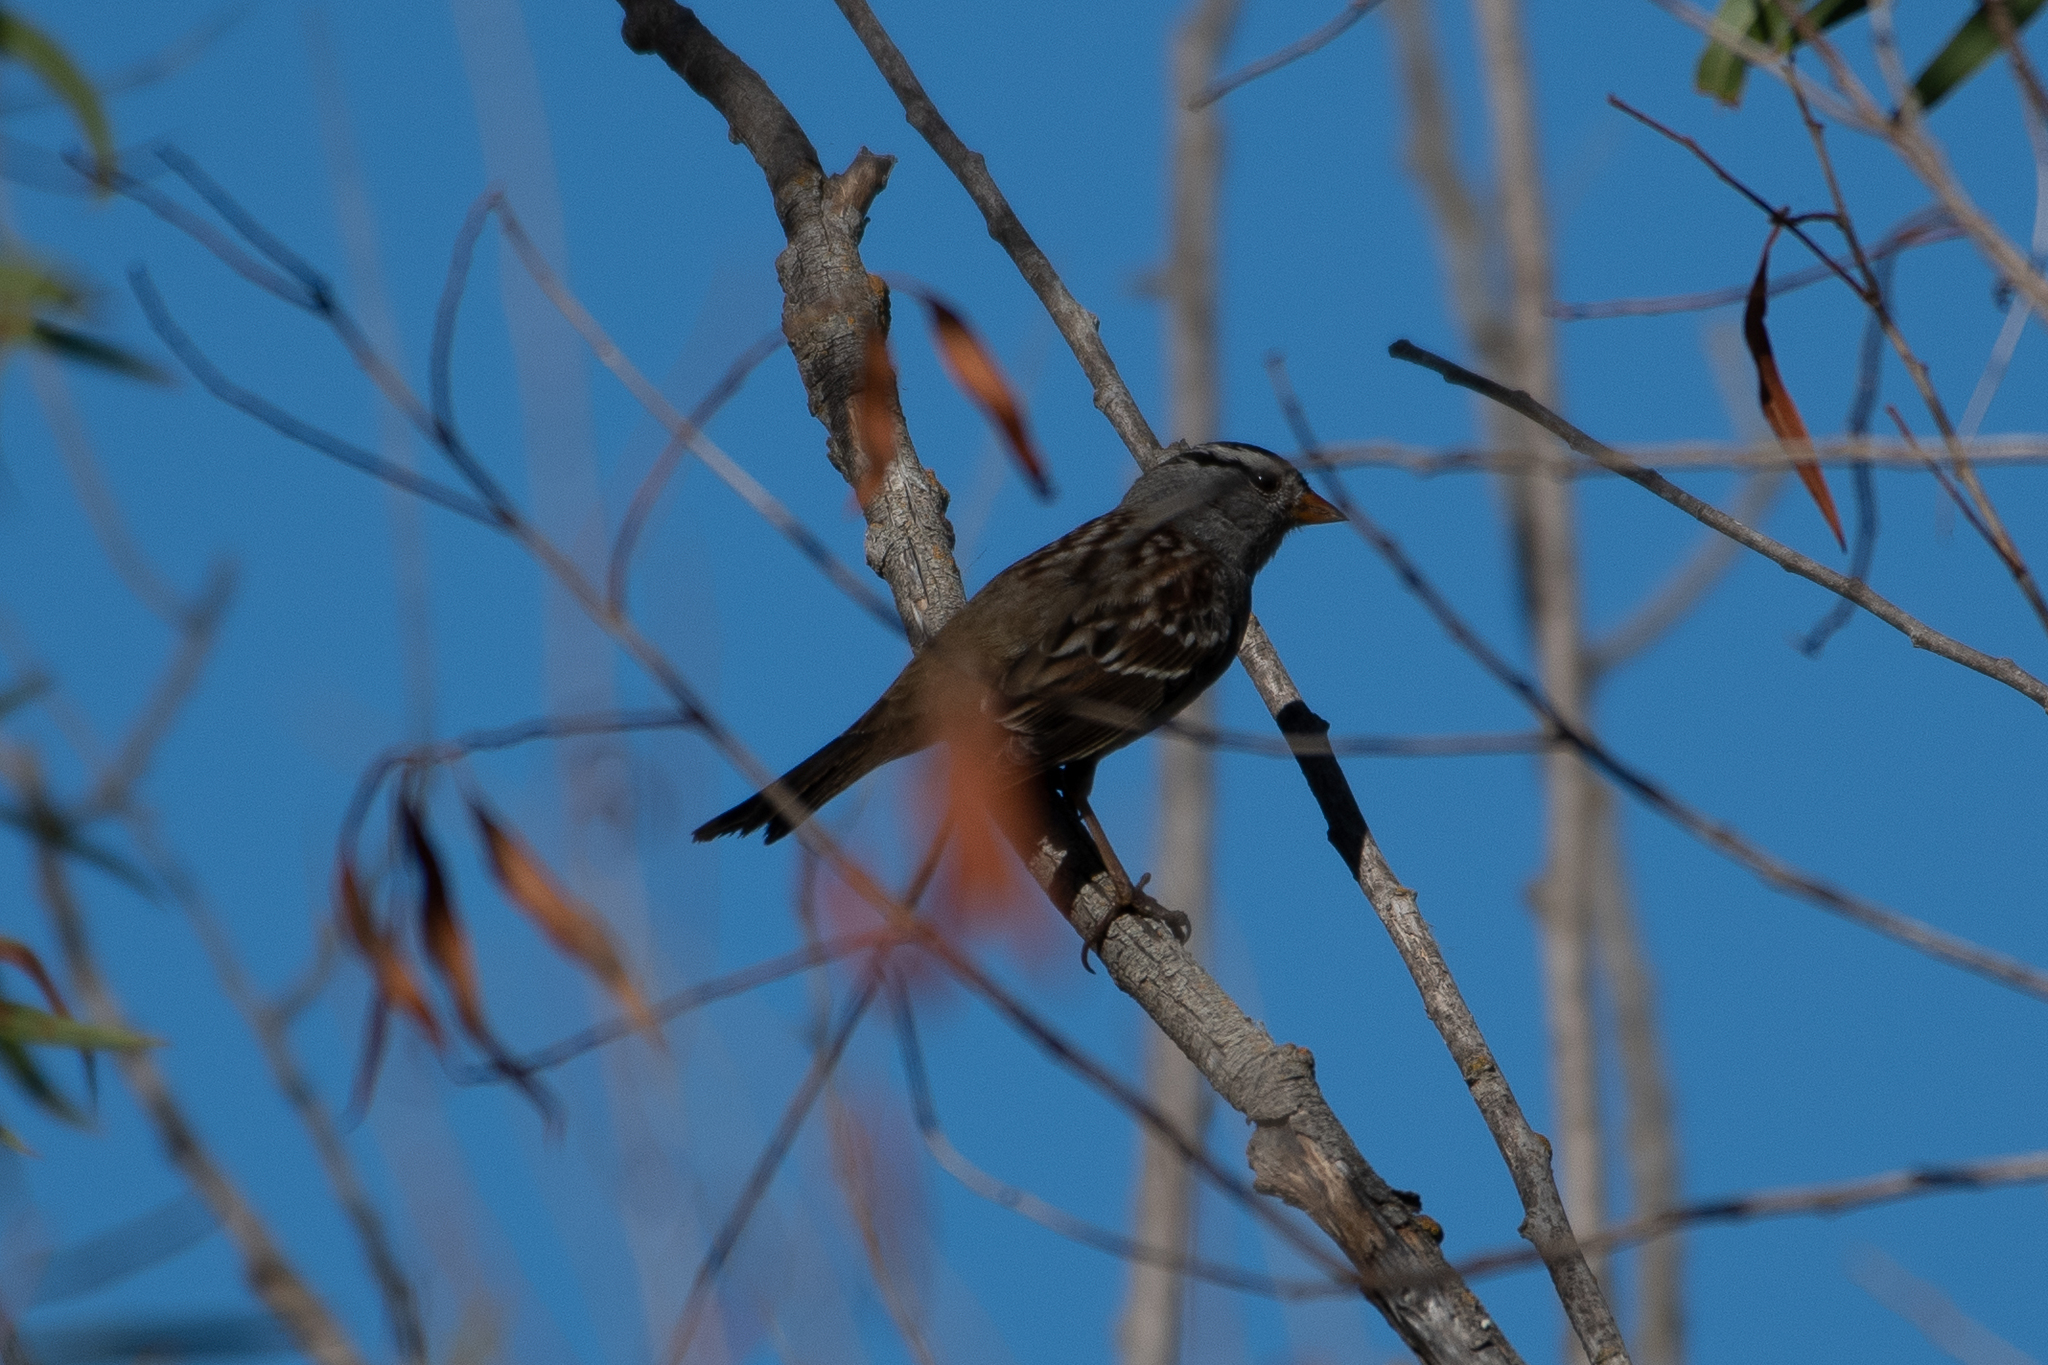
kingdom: Animalia
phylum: Chordata
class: Aves
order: Passeriformes
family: Passerellidae
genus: Zonotrichia
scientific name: Zonotrichia leucophrys
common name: White-crowned sparrow
